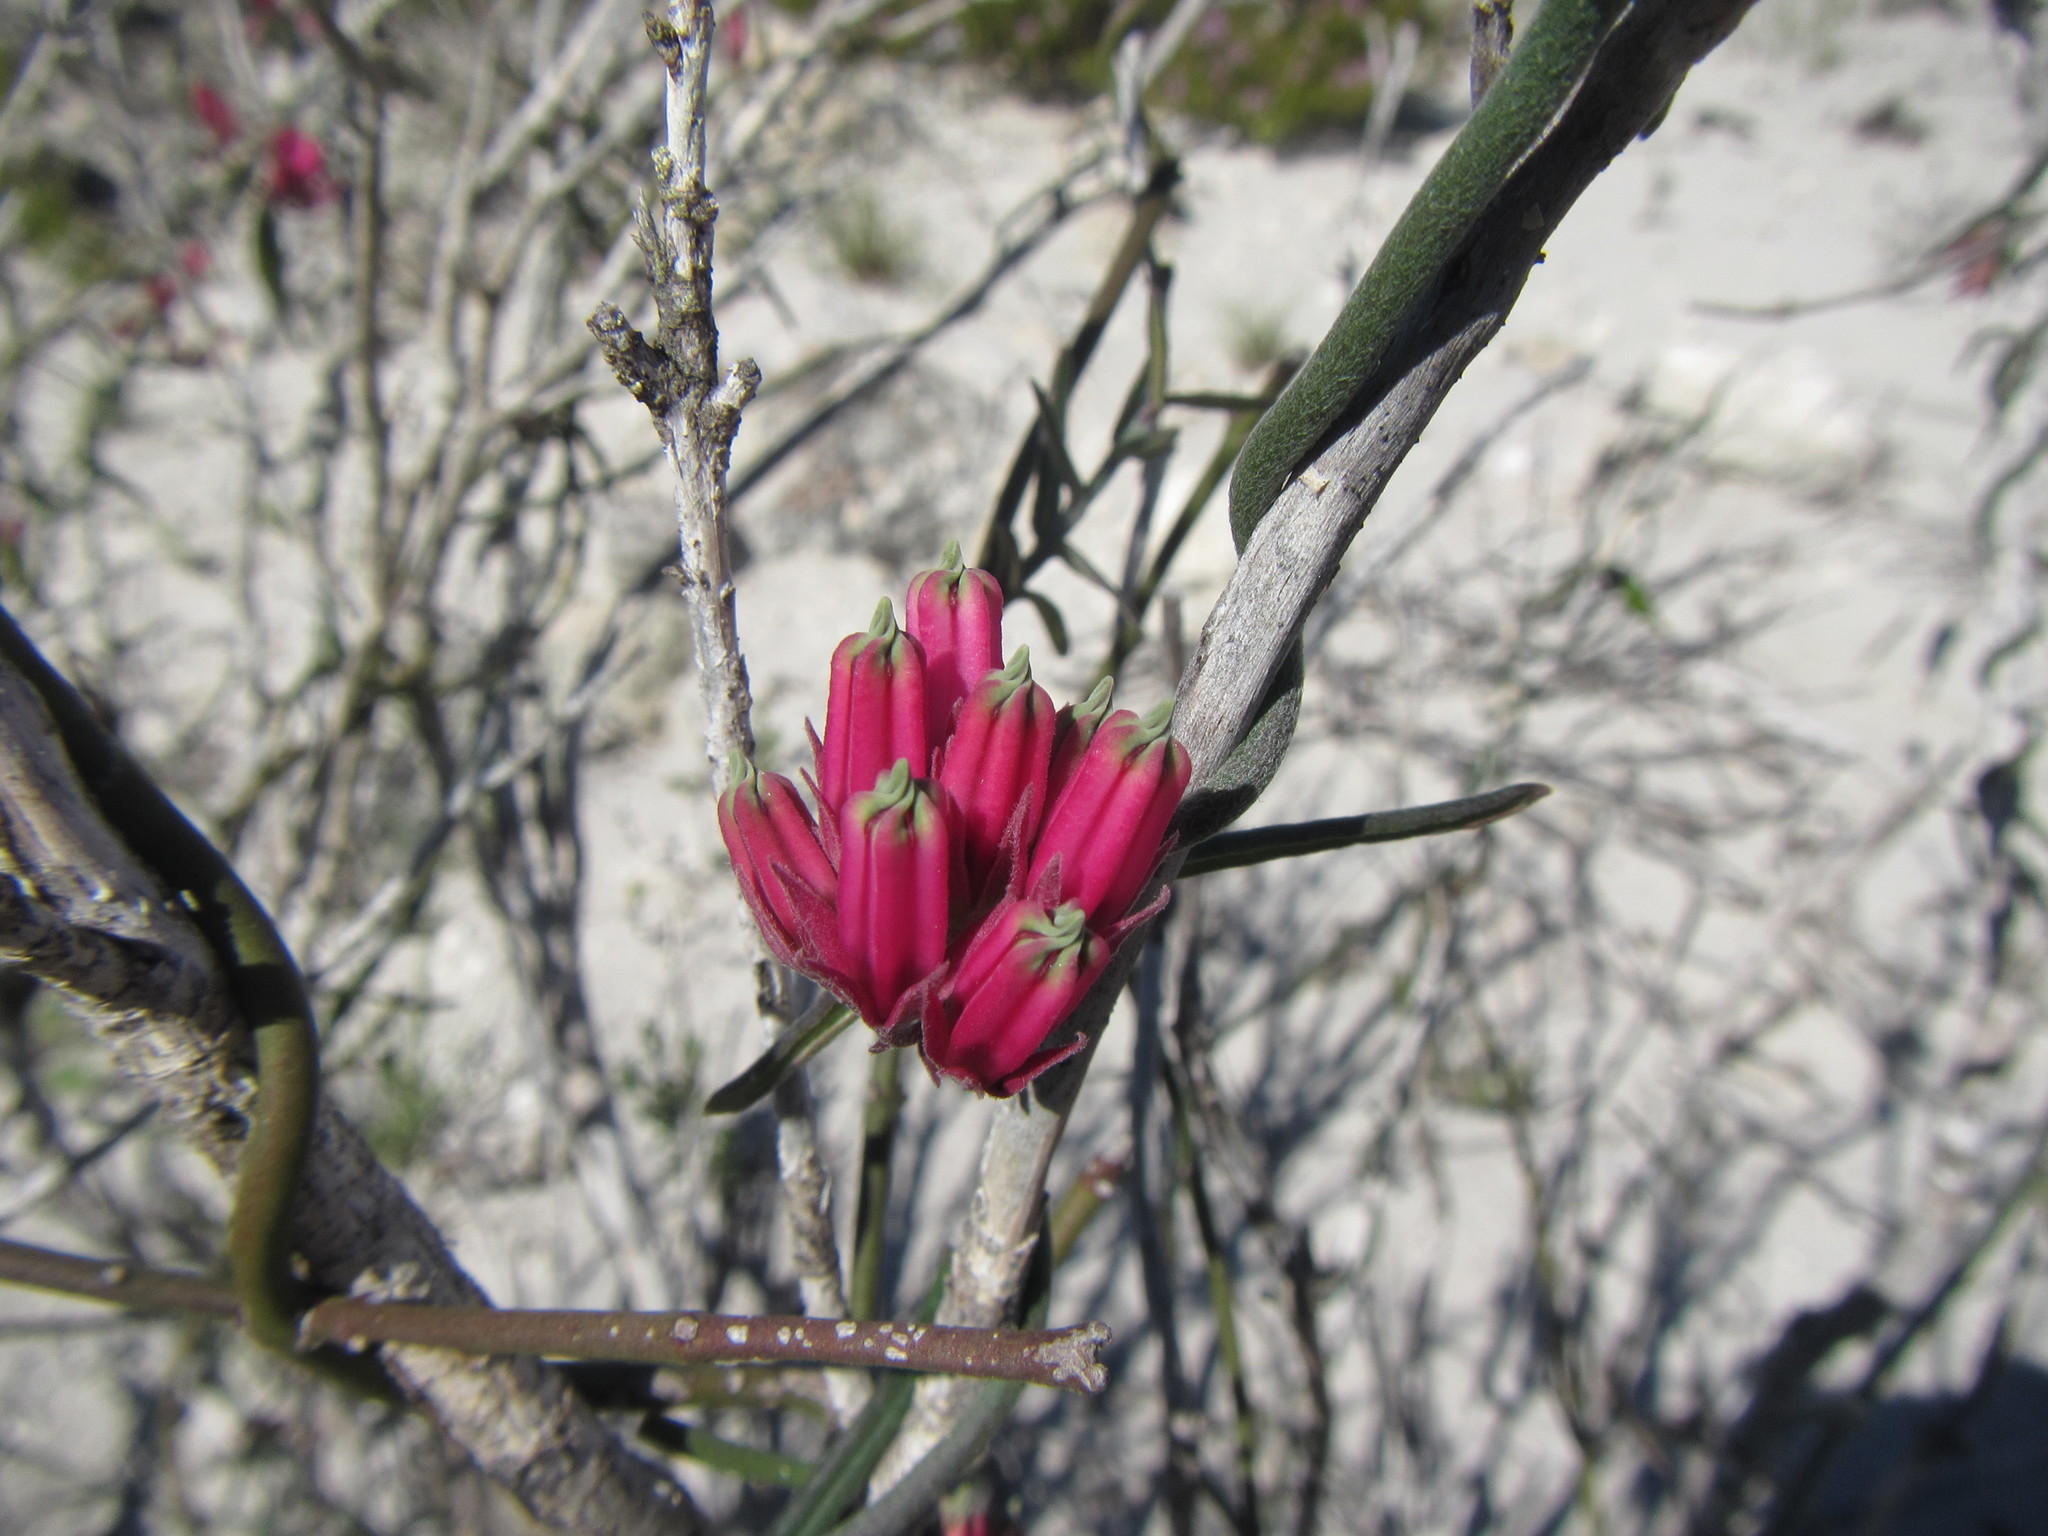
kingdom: Plantae
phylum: Tracheophyta
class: Magnoliopsida
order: Gentianales
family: Apocynaceae
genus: Microloma
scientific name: Microloma sagittatum
